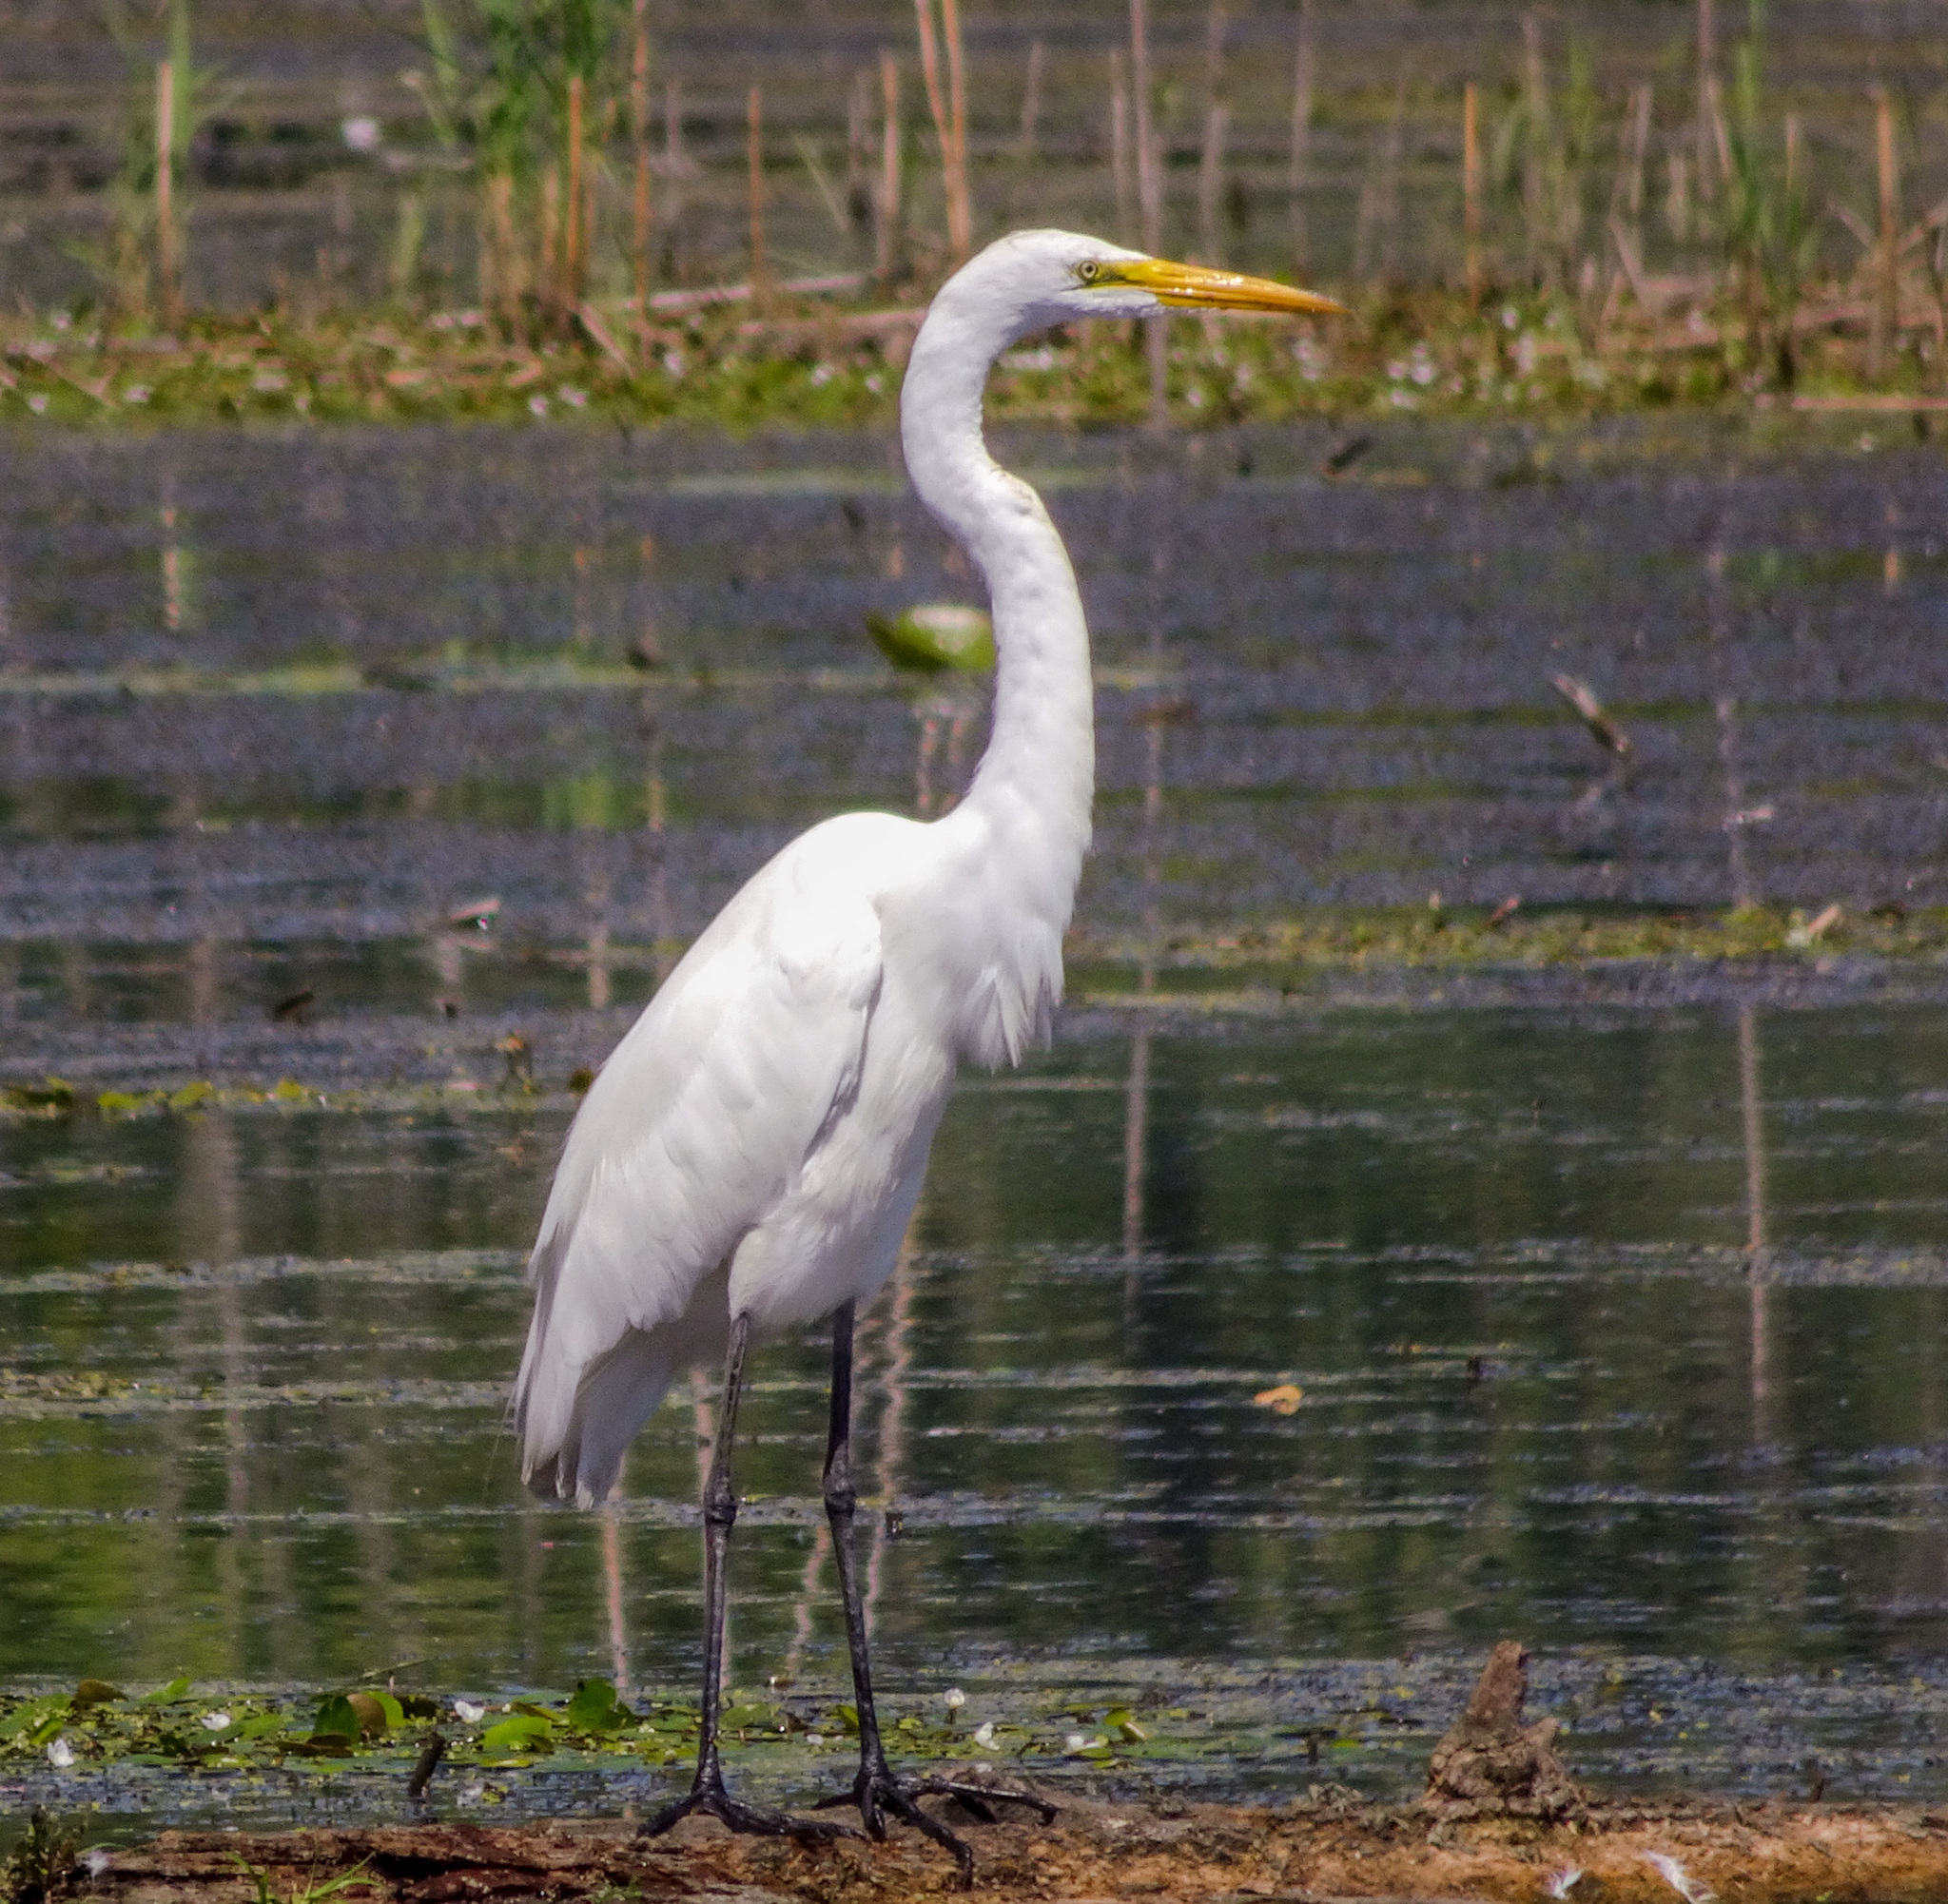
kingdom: Animalia
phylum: Chordata
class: Aves
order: Pelecaniformes
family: Ardeidae
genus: Ardea
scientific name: Ardea alba
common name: Great egret
